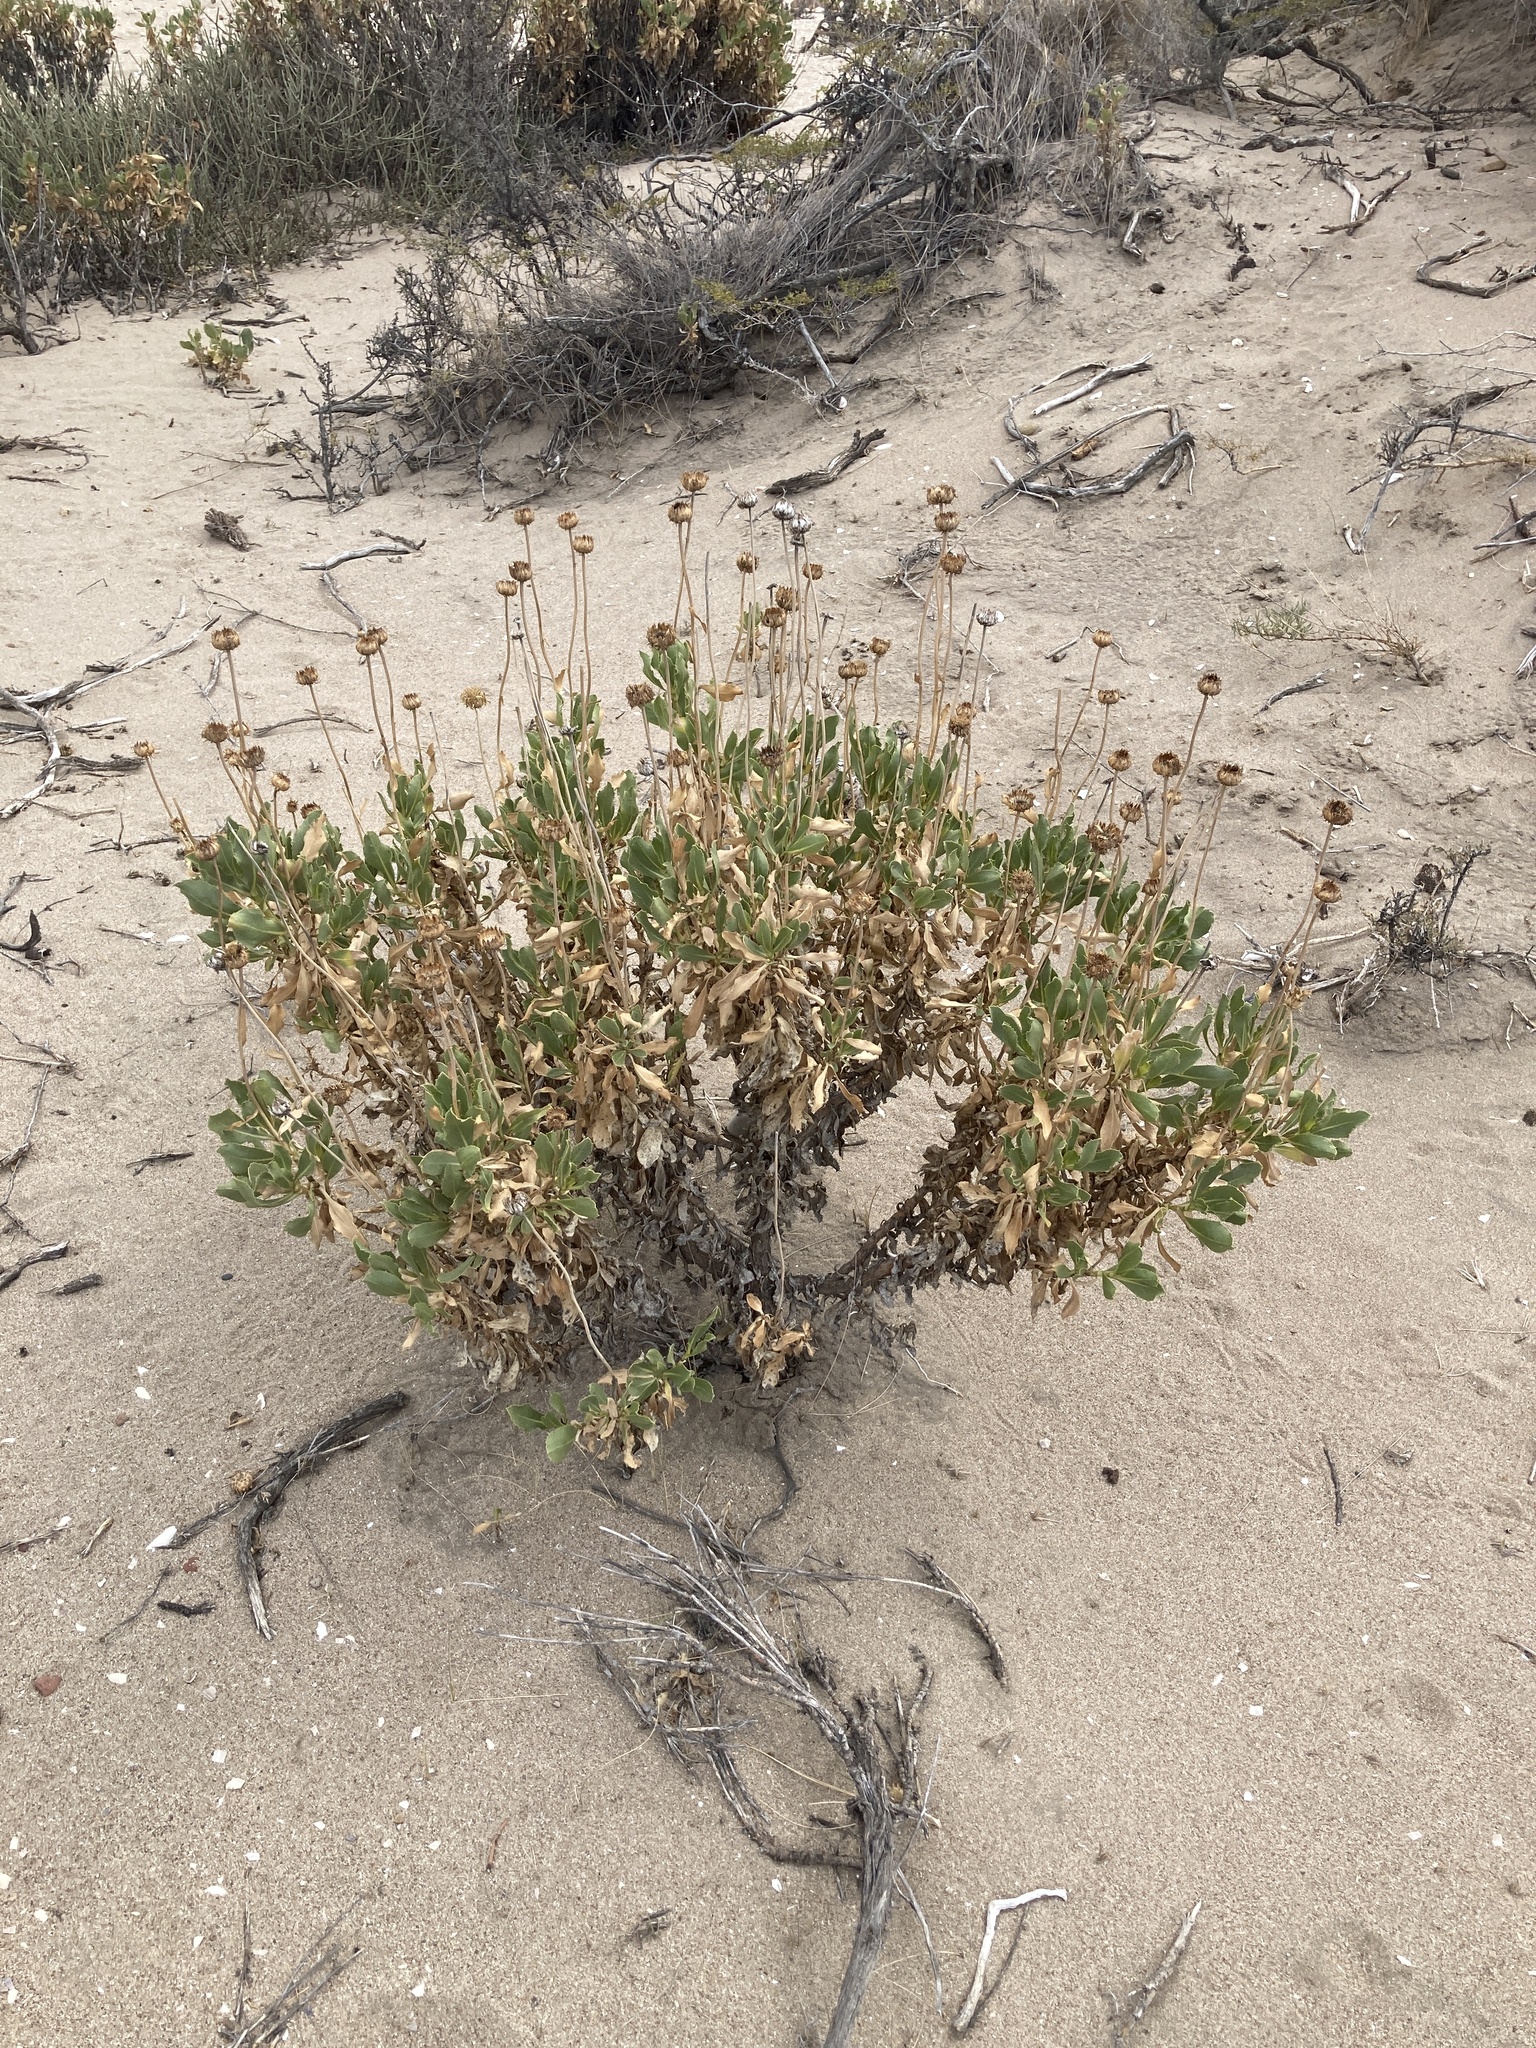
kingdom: Plantae
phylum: Tracheophyta
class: Magnoliopsida
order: Asterales
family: Asteraceae
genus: Grindelia
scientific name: Grindelia chiloensis
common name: Shrubby gumweed
